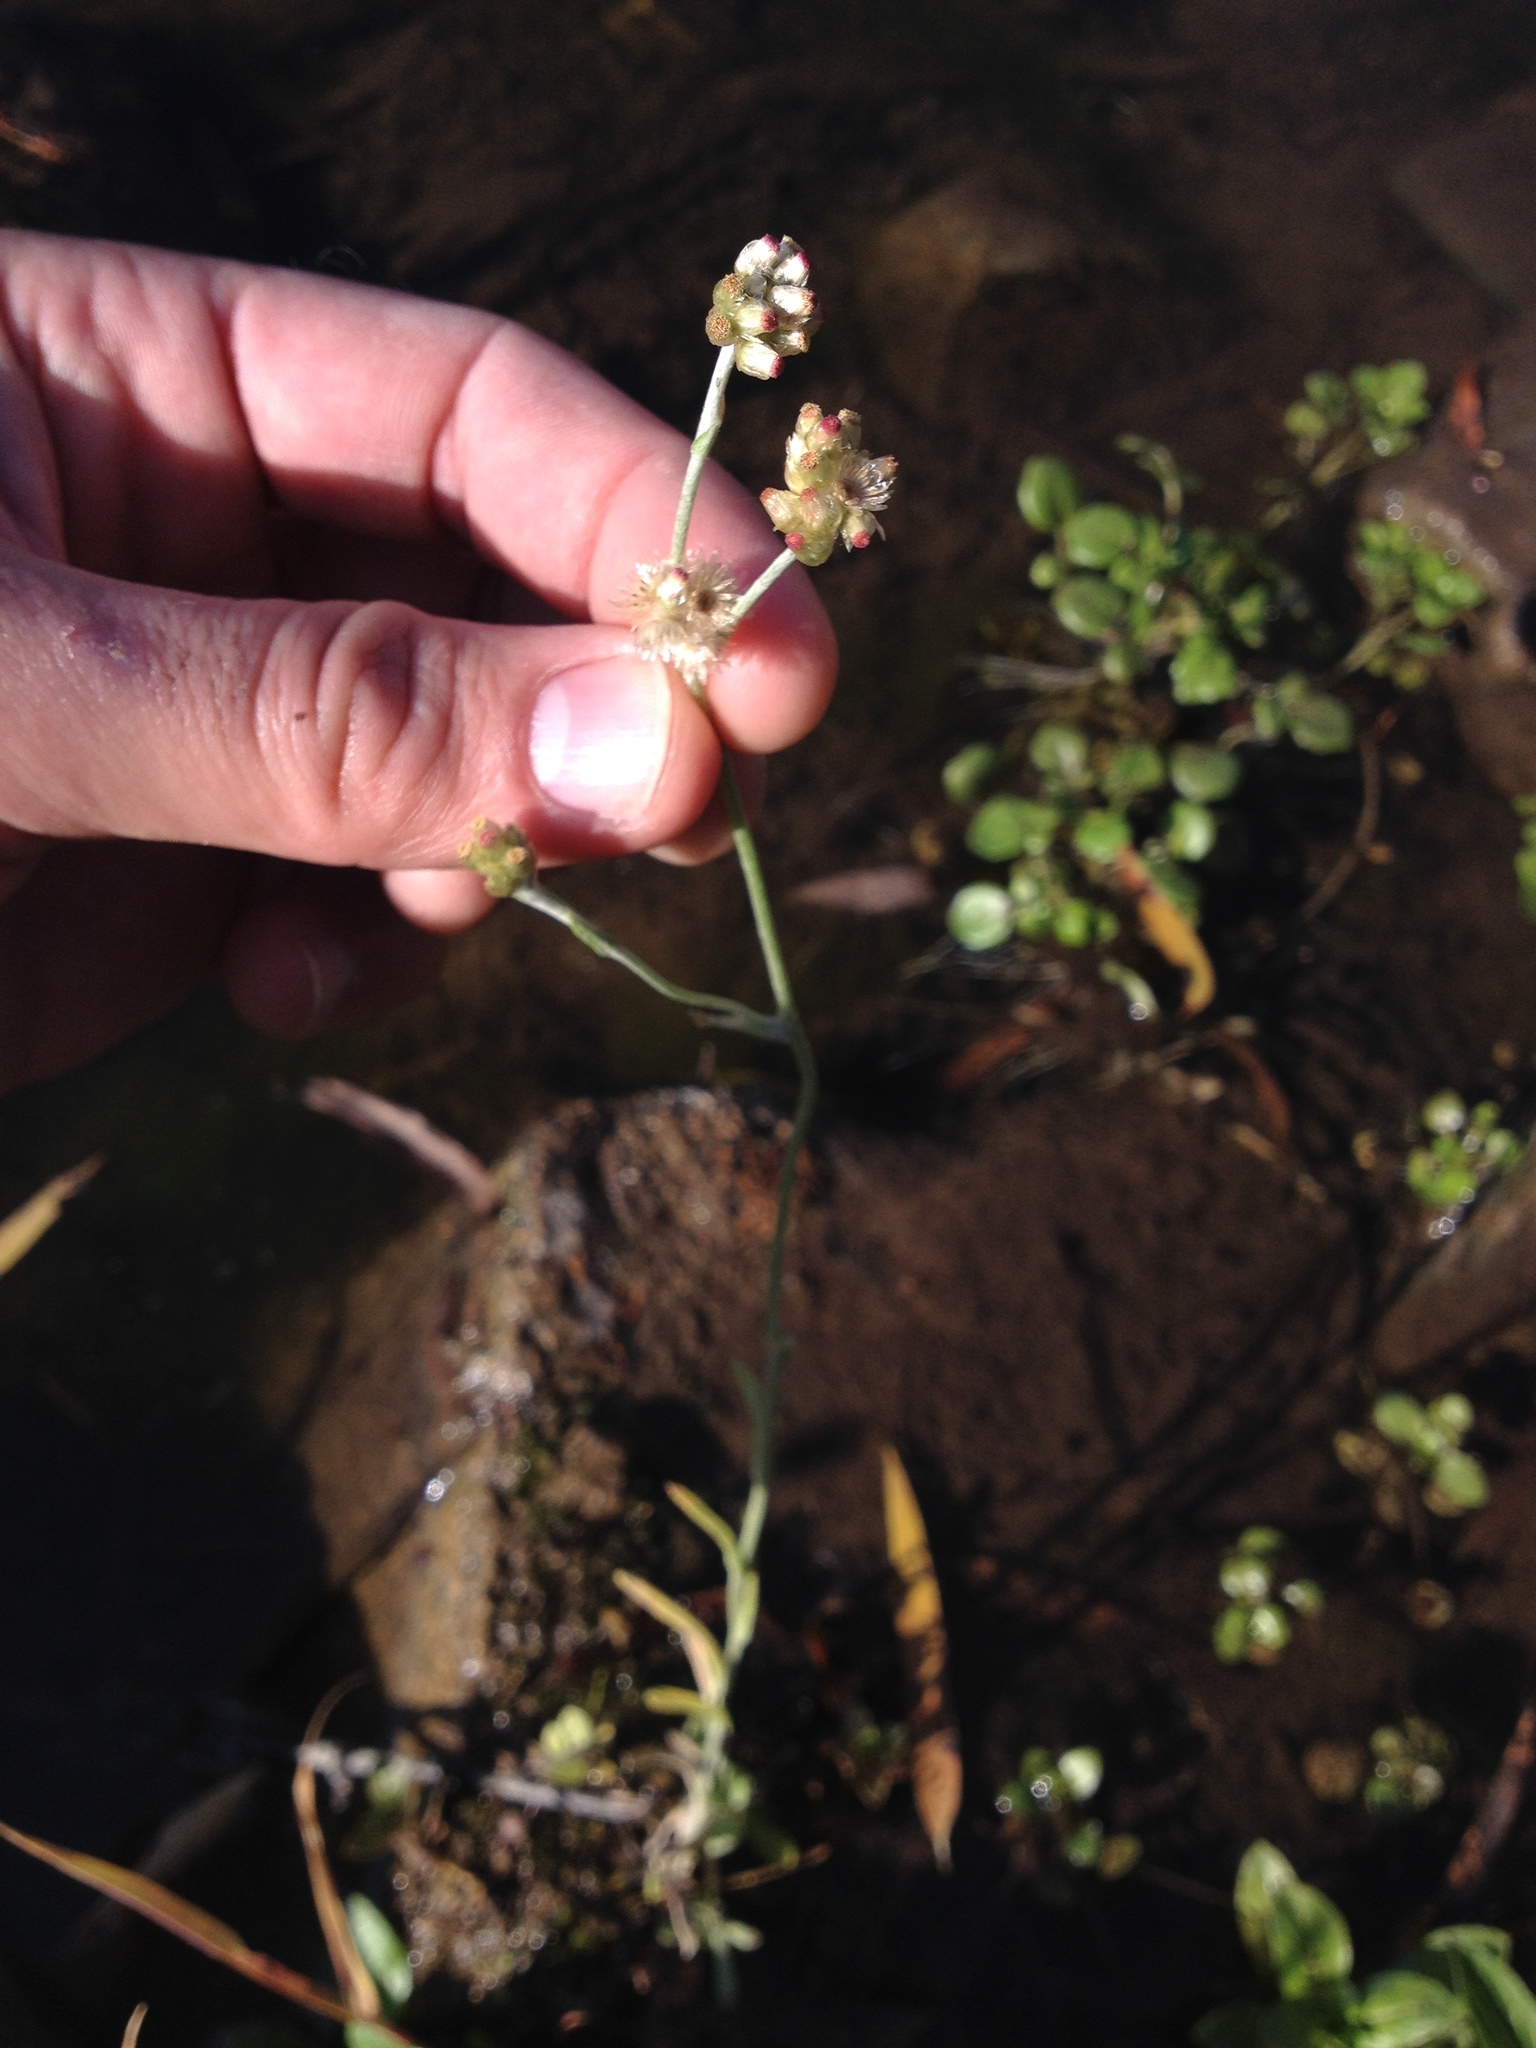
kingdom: Plantae
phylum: Tracheophyta
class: Magnoliopsida
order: Asterales
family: Asteraceae
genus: Helichrysum
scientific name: Helichrysum luteoalbum
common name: Daisy
